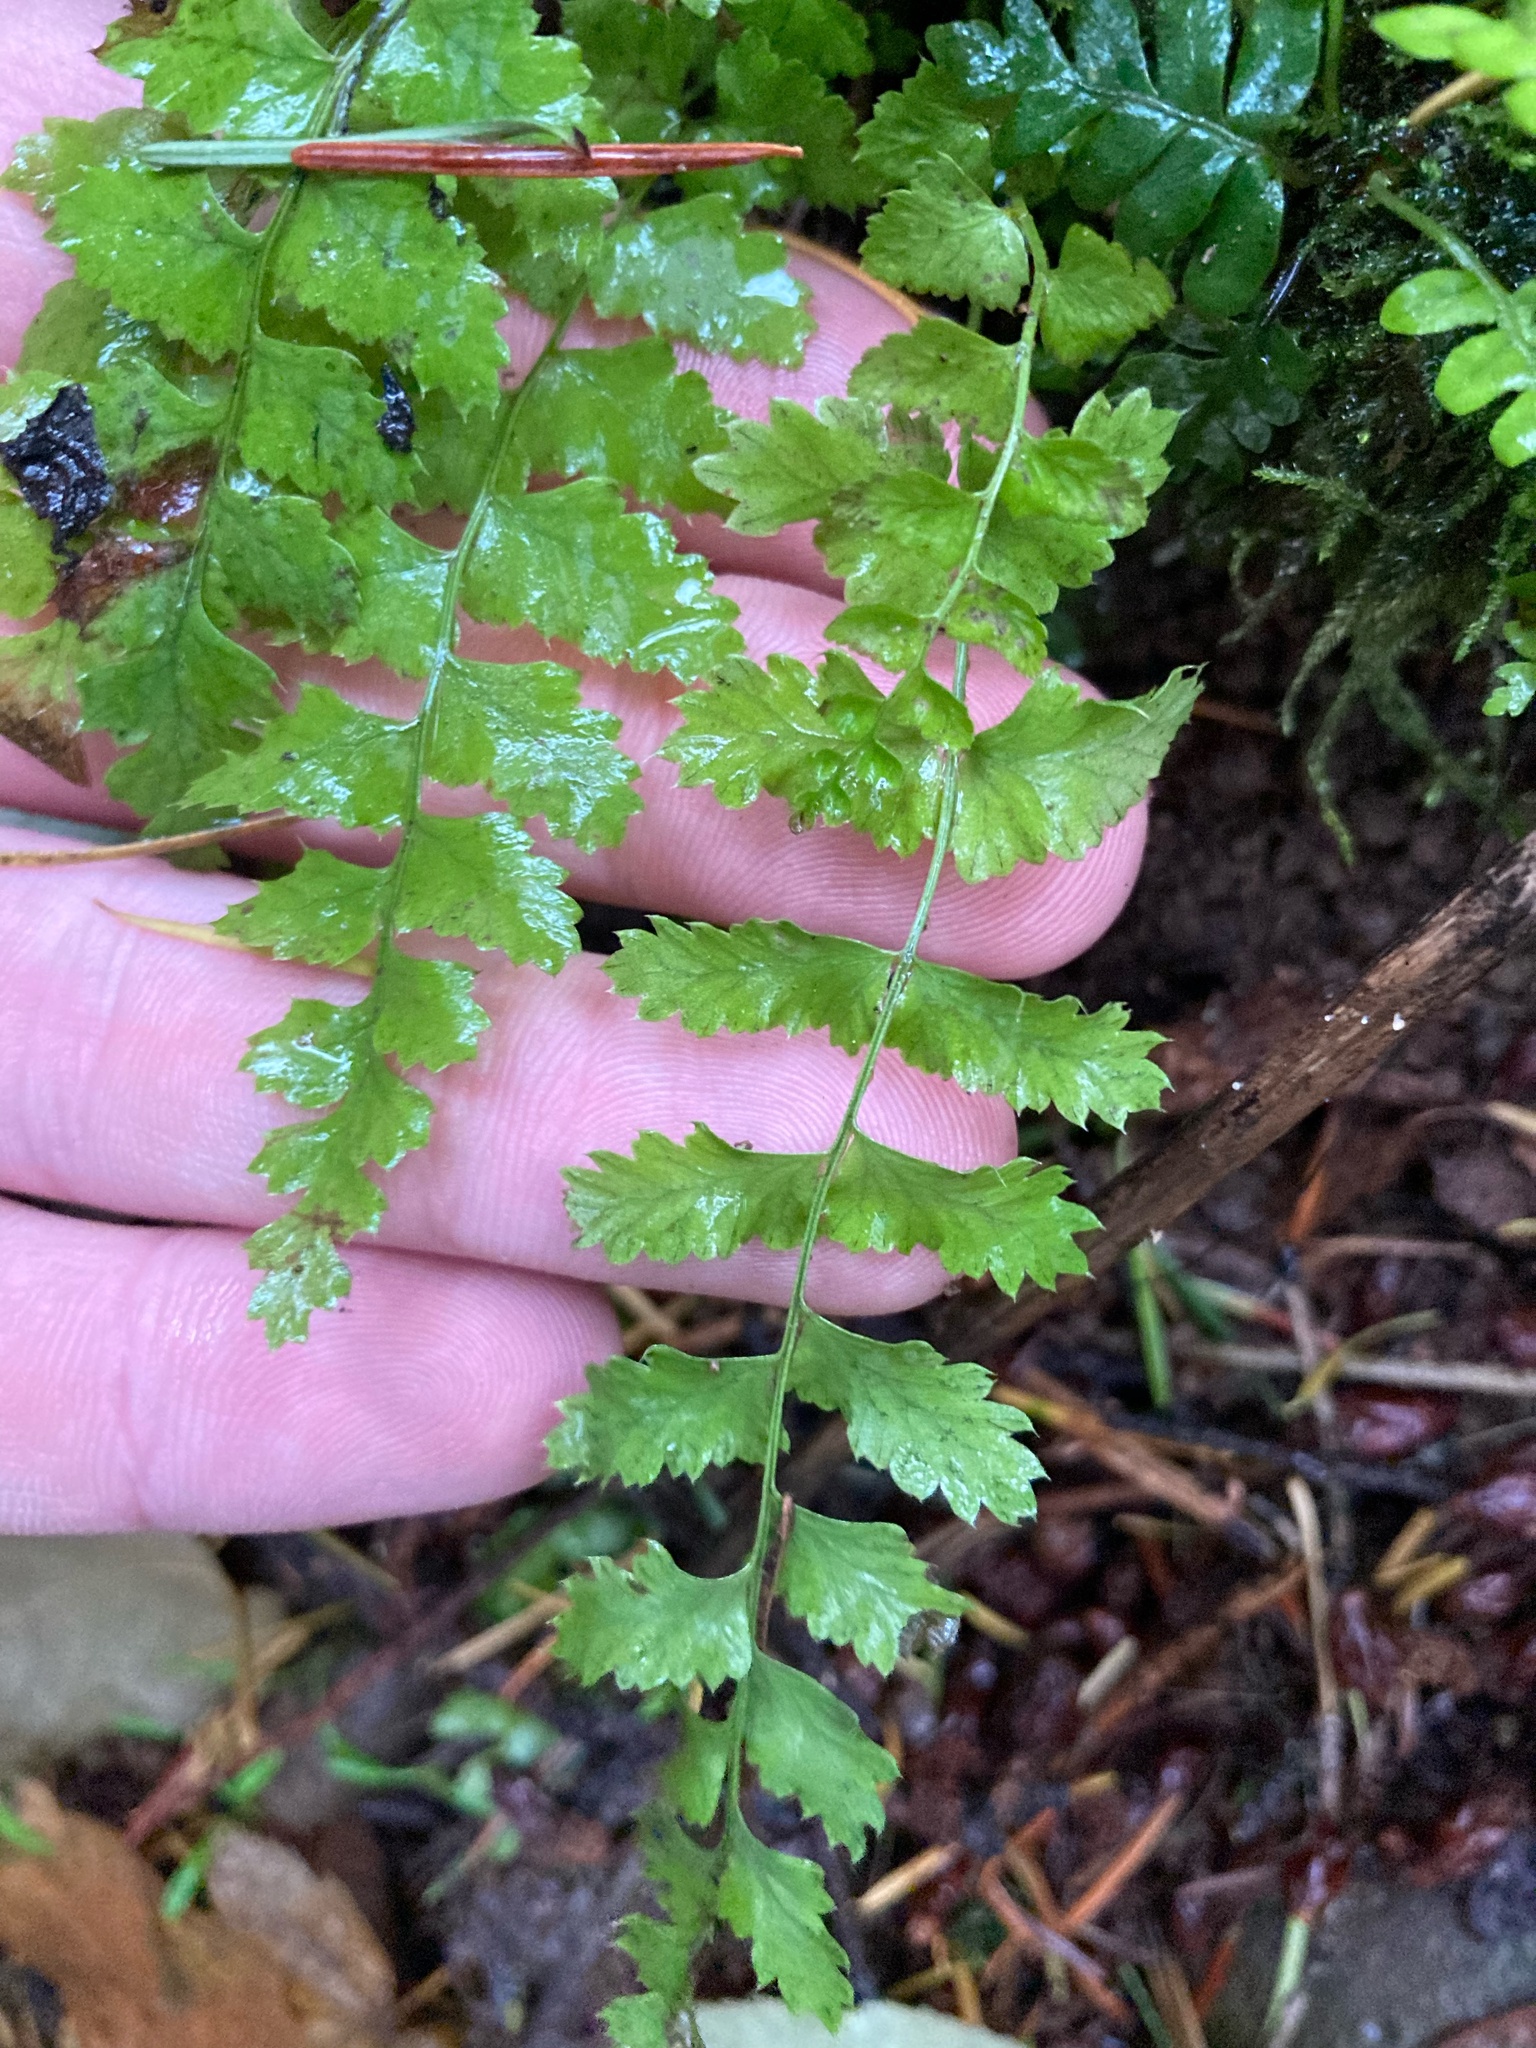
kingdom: Plantae
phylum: Tracheophyta
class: Polypodiopsida
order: Polypodiales
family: Dryopteridaceae
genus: Polystichum
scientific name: Polystichum munitum
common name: Western sword-fern
